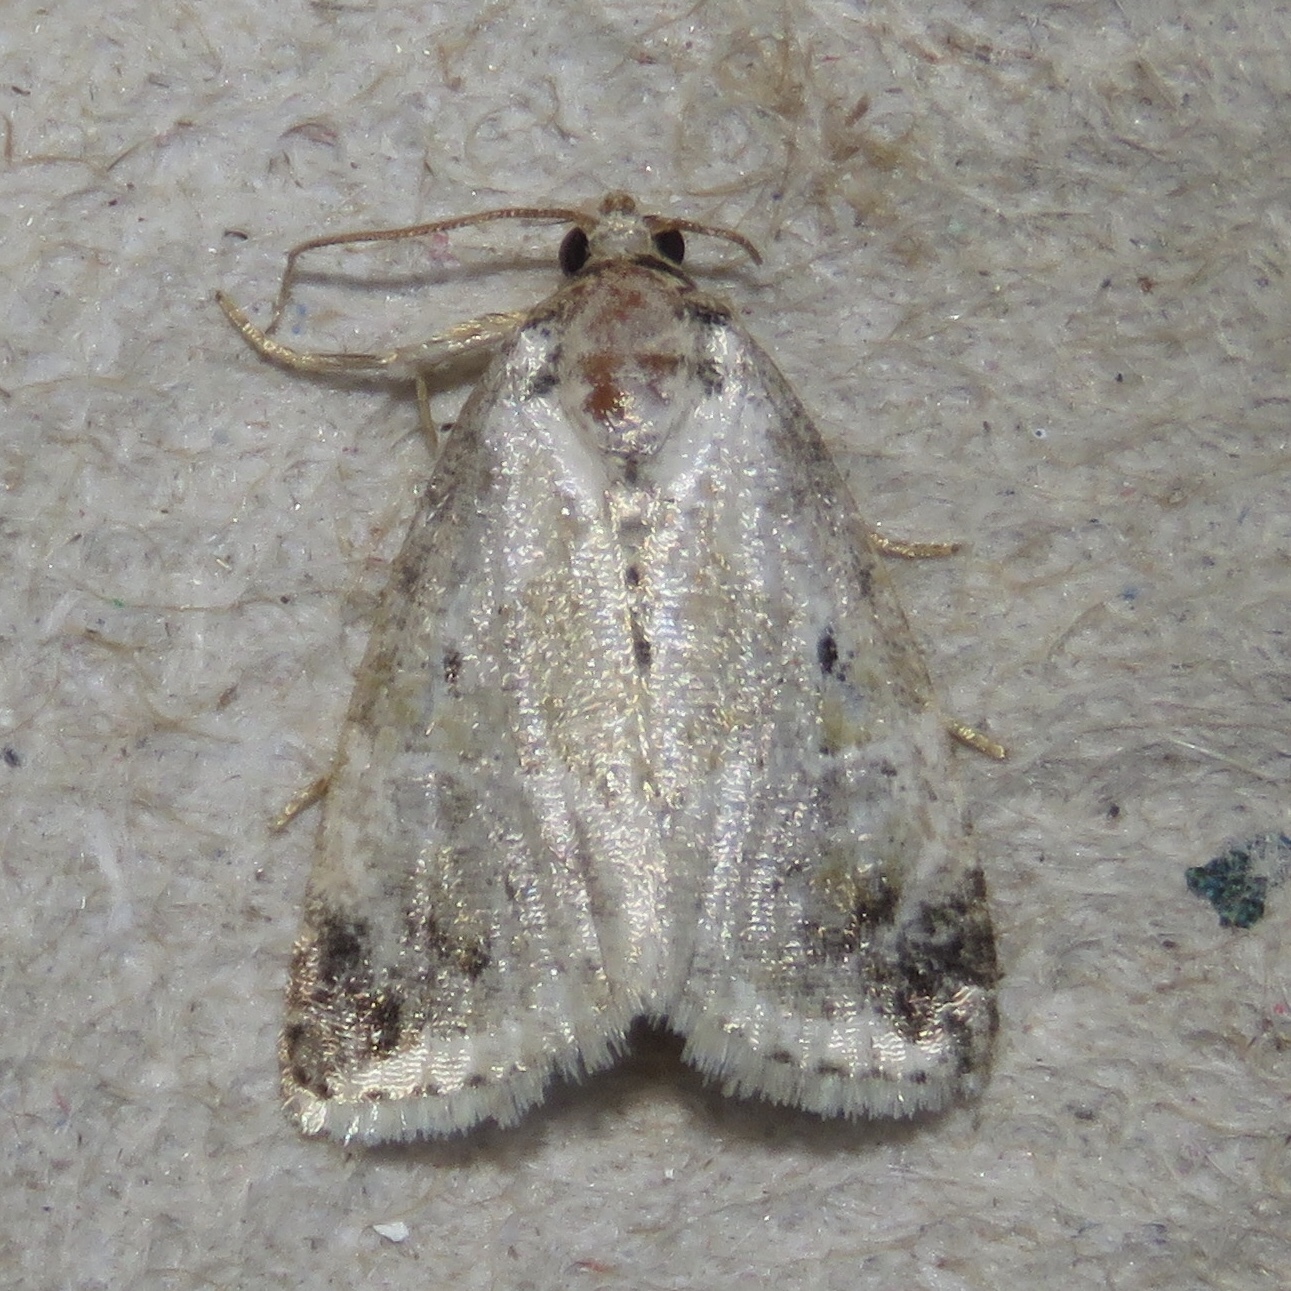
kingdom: Animalia
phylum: Arthropoda
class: Insecta
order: Lepidoptera
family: Noctuidae
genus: Maliattha
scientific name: Maliattha synochitis
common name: Black-dotted glyph
